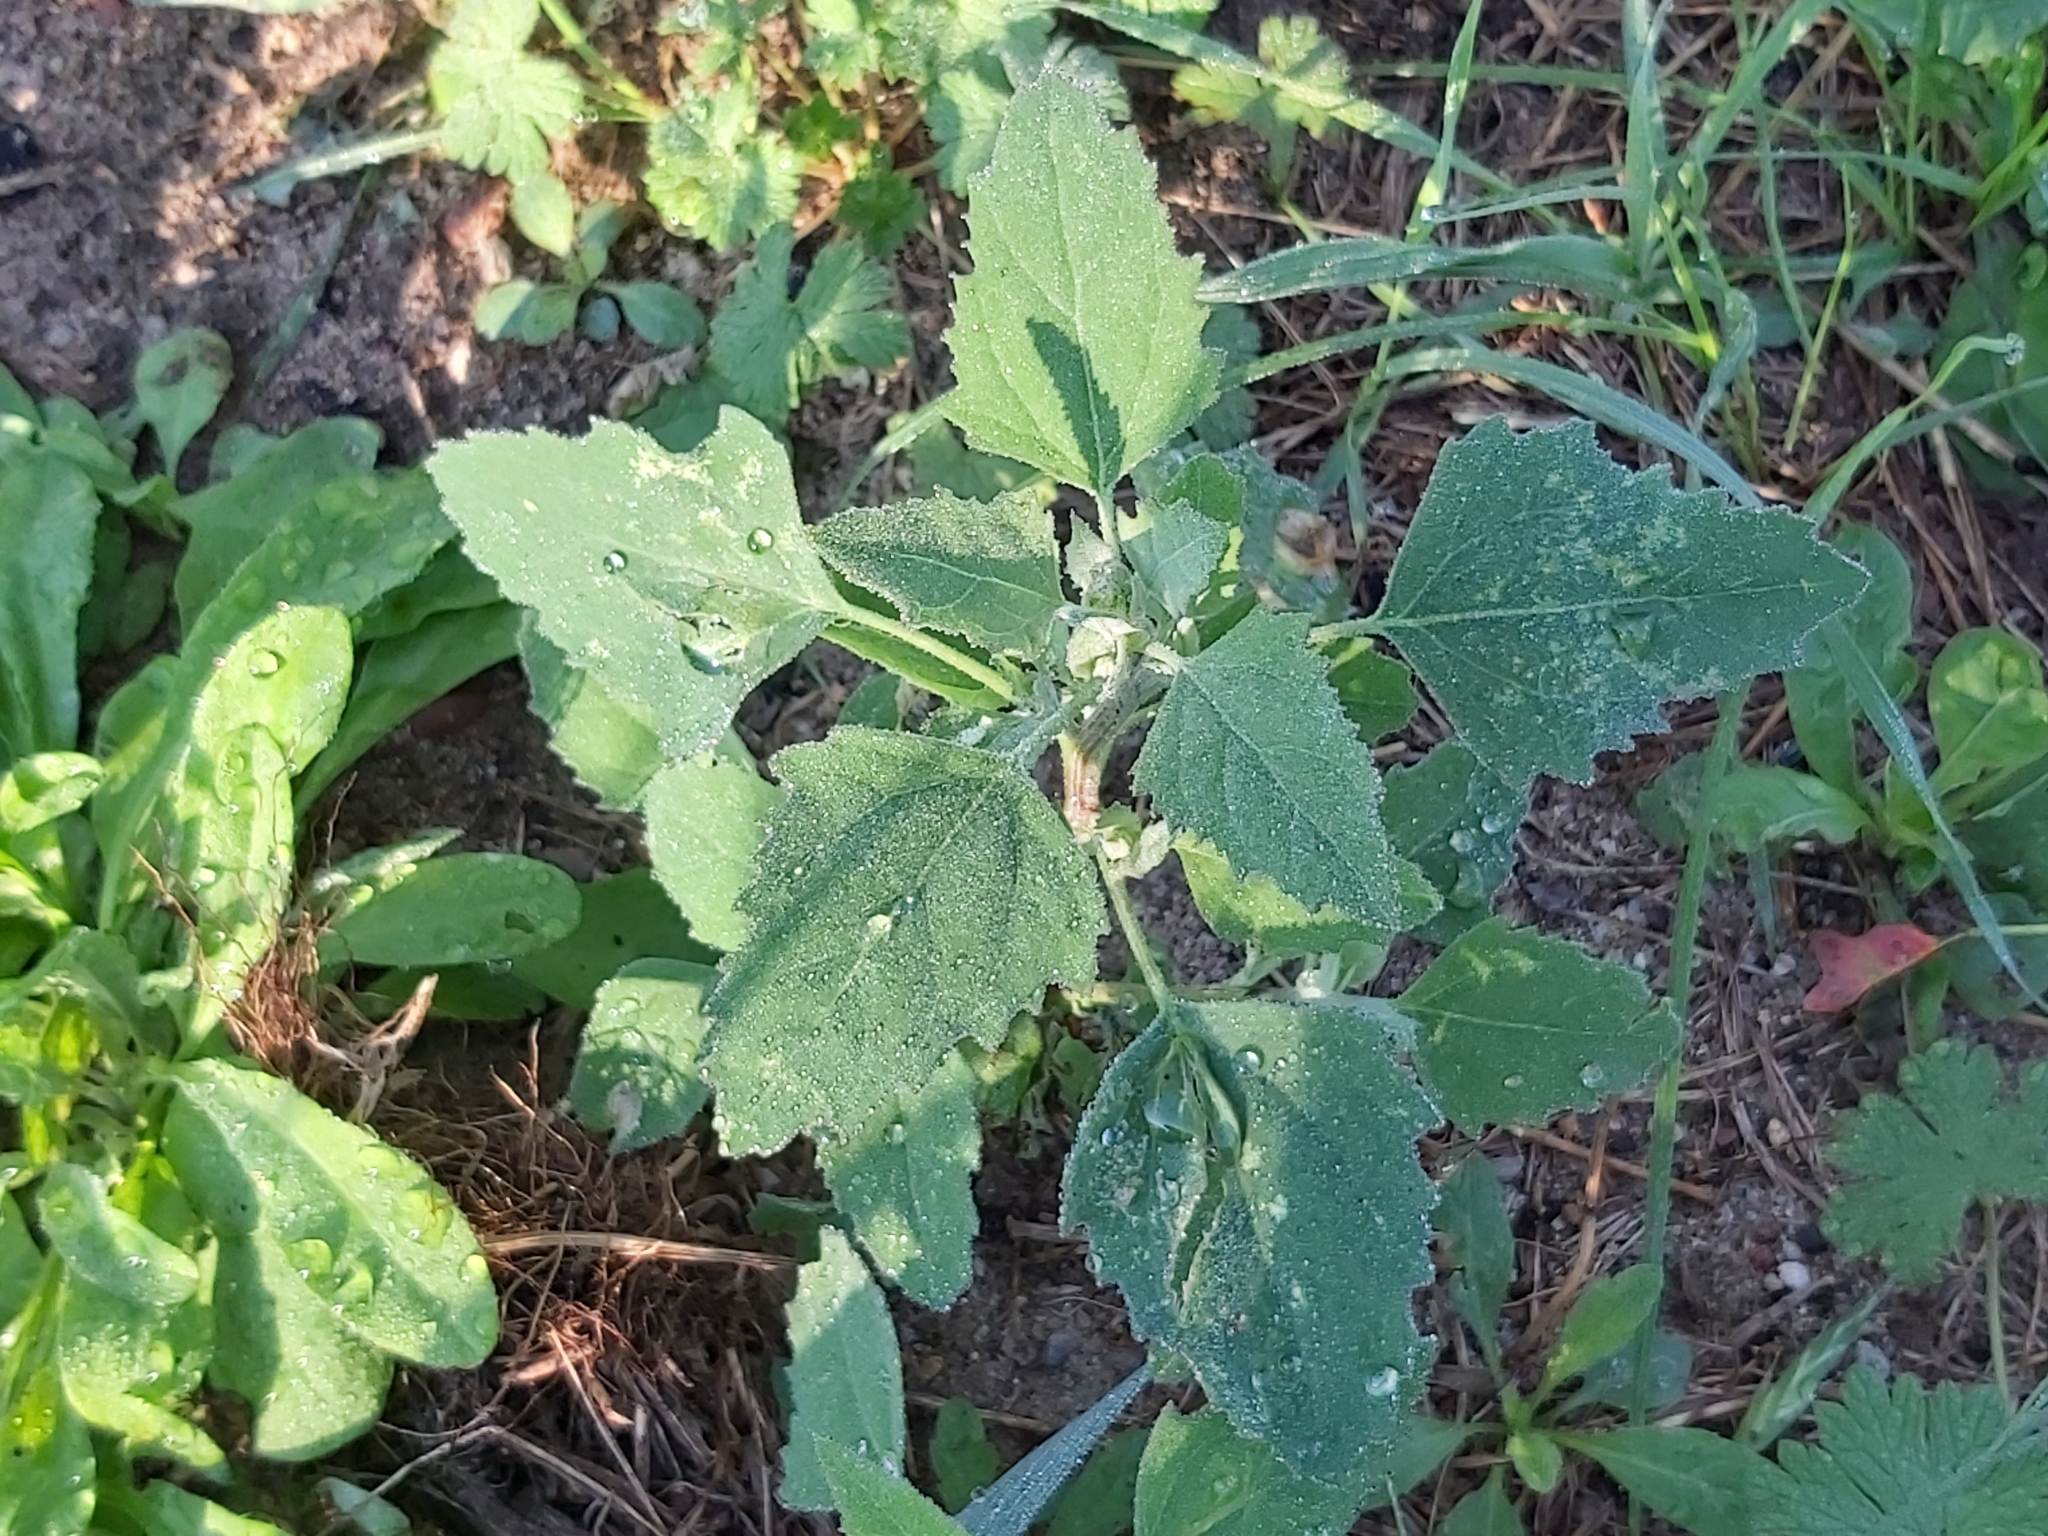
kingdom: Plantae
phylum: Tracheophyta
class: Magnoliopsida
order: Caryophyllales
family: Amaranthaceae
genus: Chenopodium
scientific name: Chenopodium album
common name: Fat-hen
